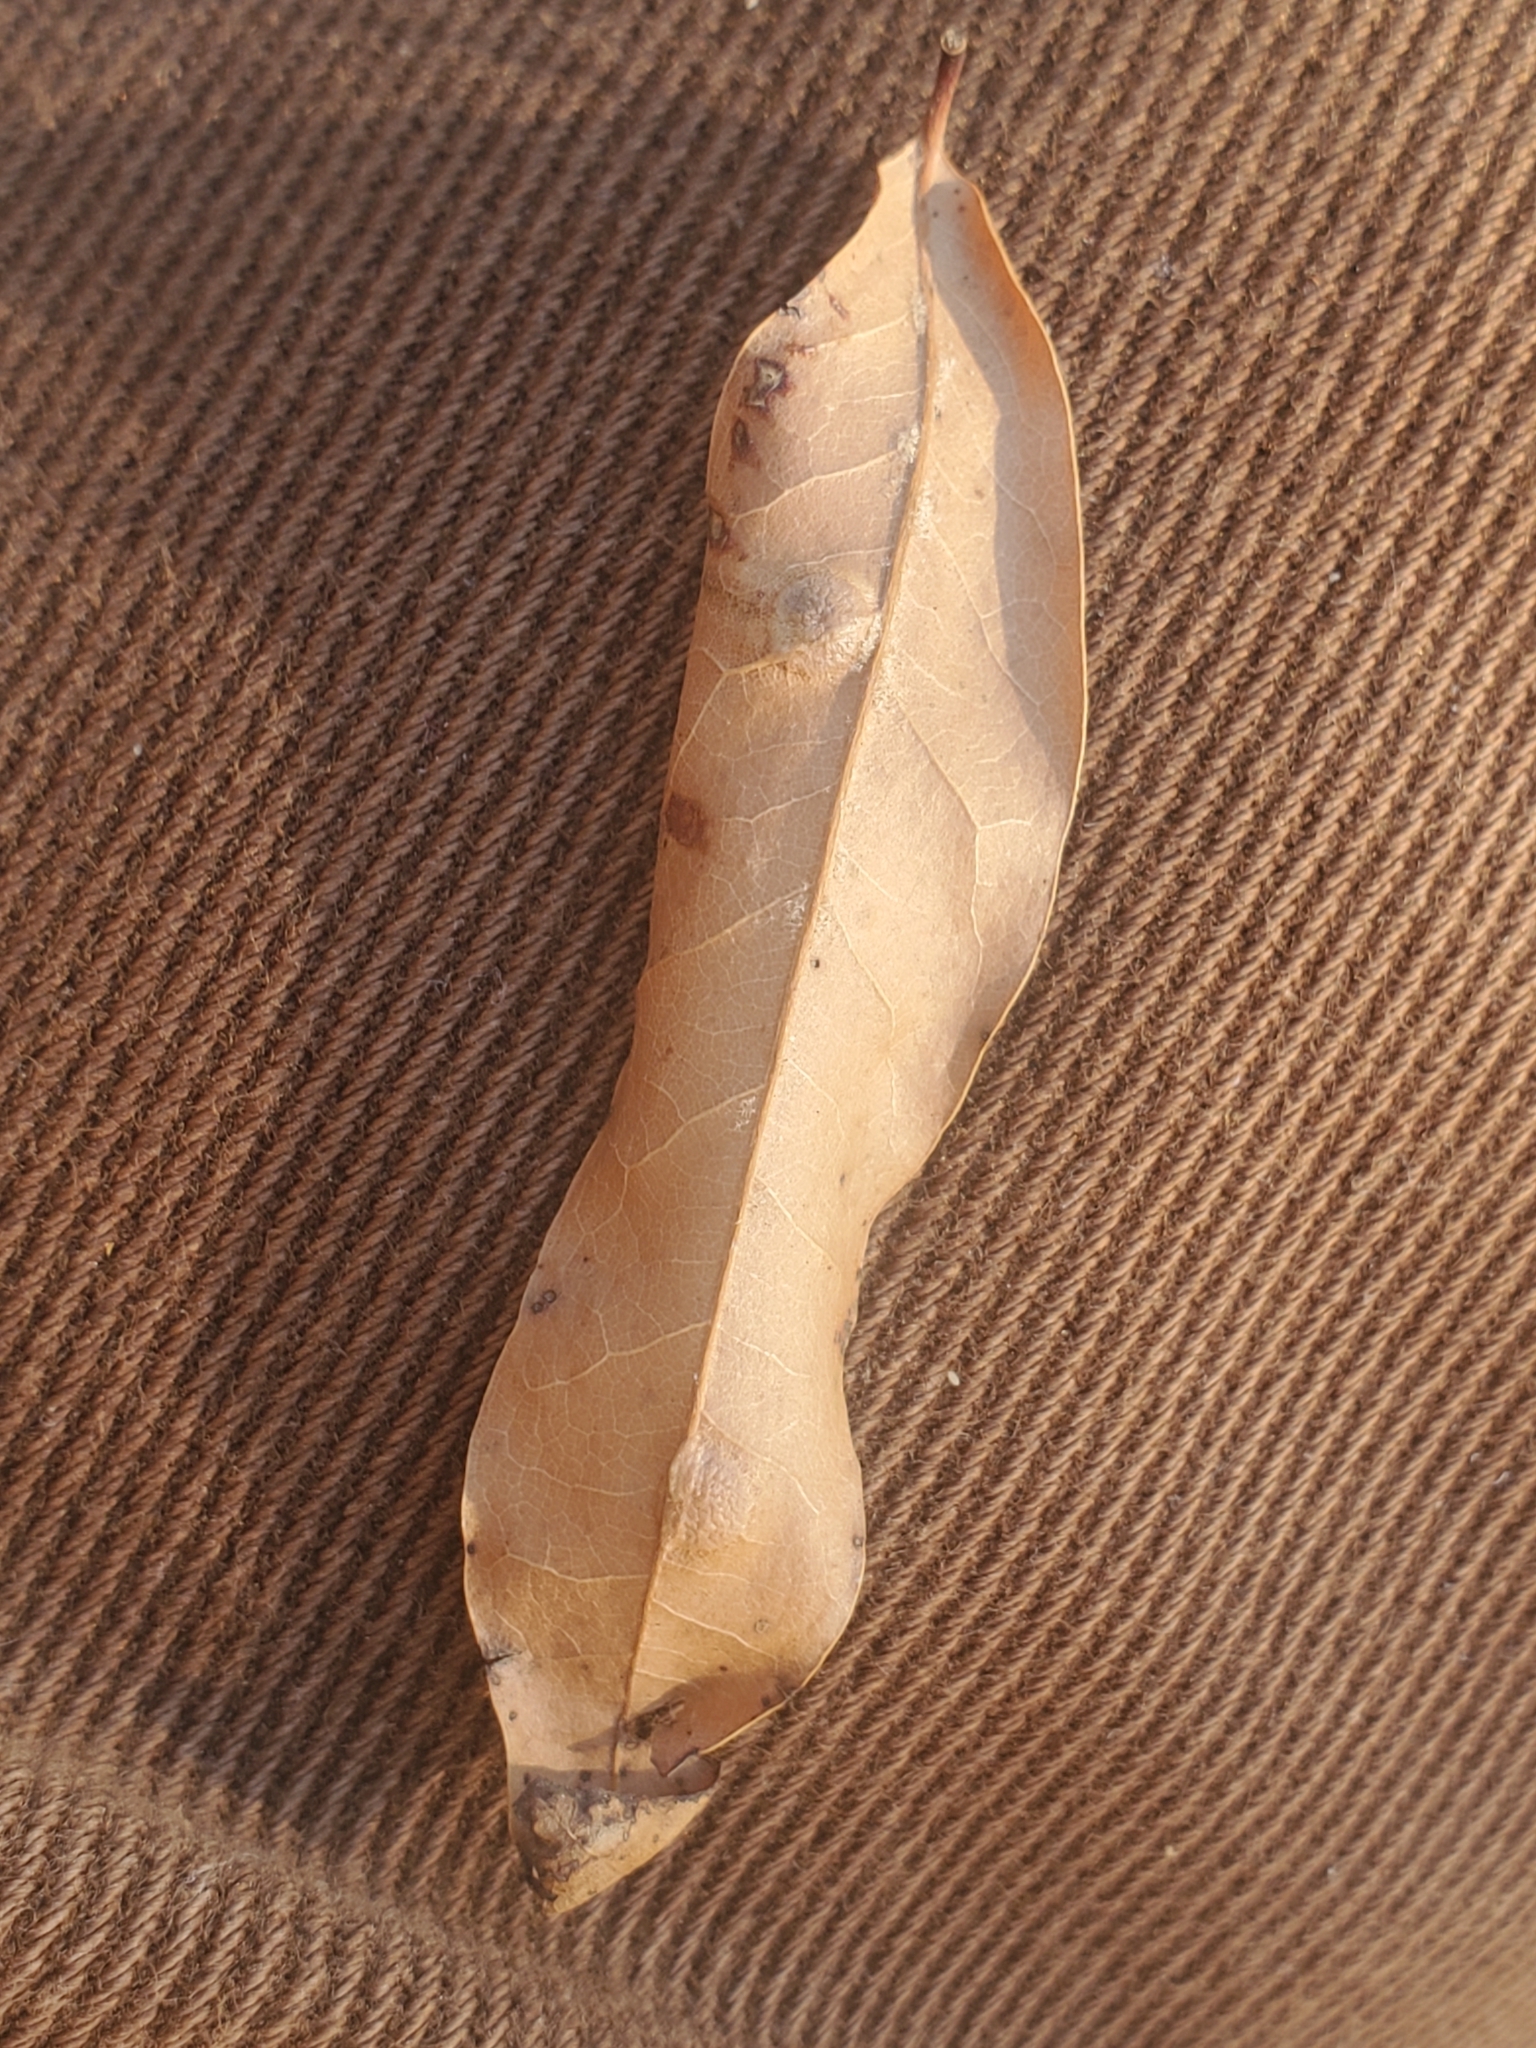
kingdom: Animalia
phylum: Arthropoda
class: Insecta
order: Diptera
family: Cecidomyiidae
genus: Polystepha
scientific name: Polystepha pilulae
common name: Oak leaf gall midge
